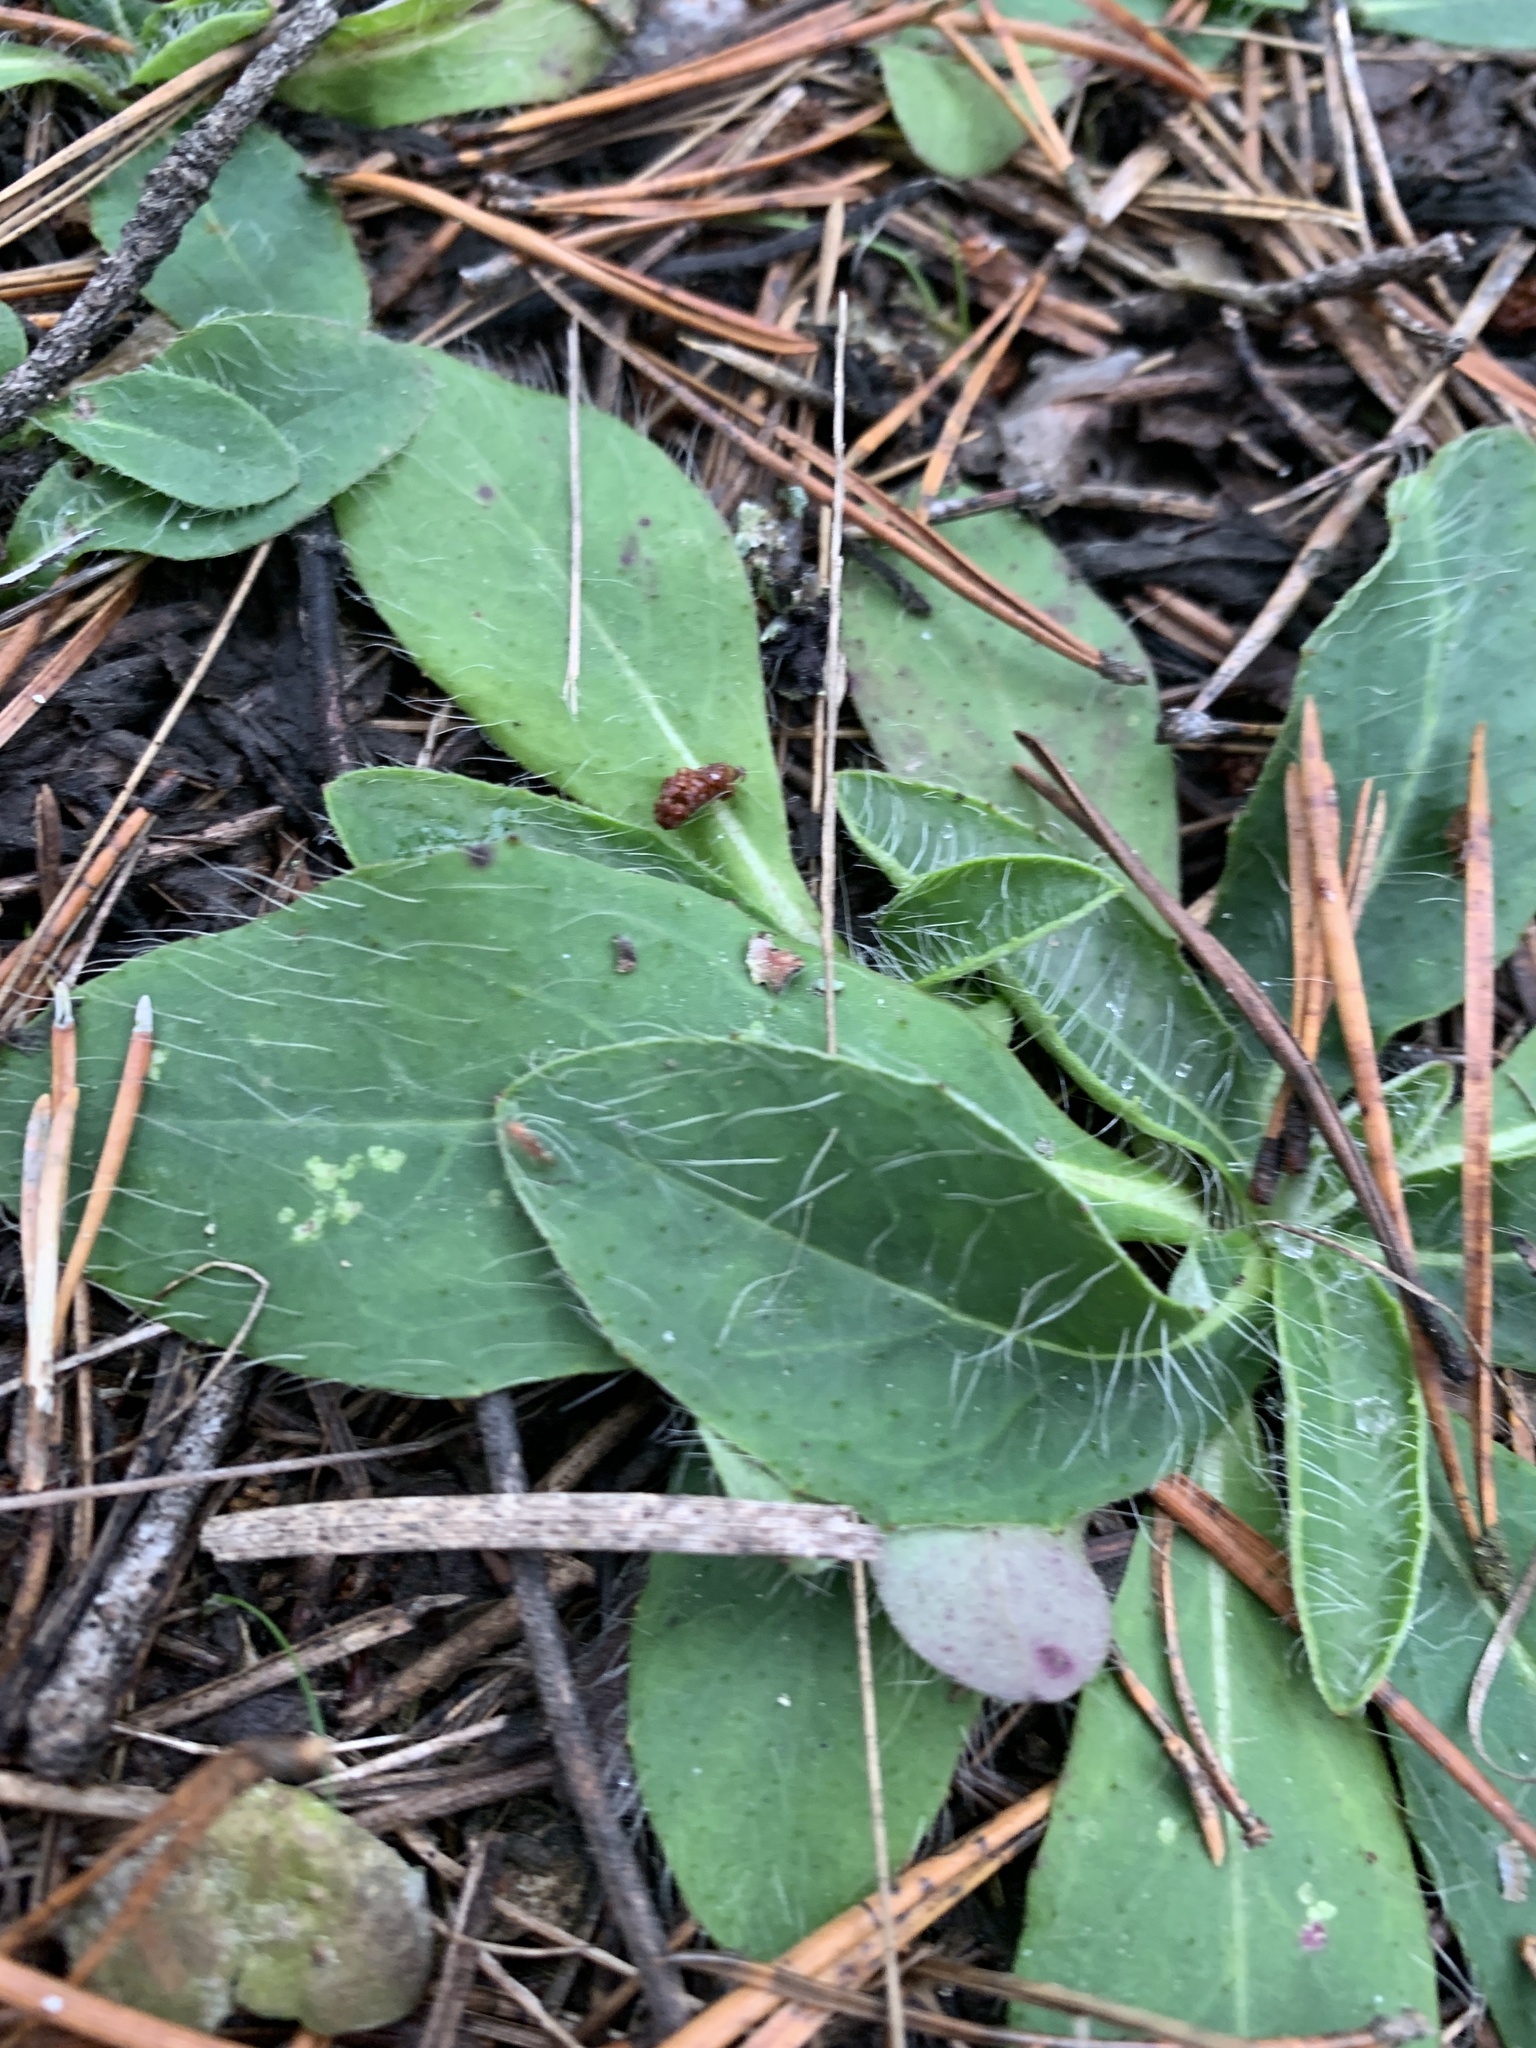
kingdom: Plantae
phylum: Tracheophyta
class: Magnoliopsida
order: Asterales
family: Asteraceae
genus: Pilosella
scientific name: Pilosella officinarum
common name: Mouse-ear hawkweed
